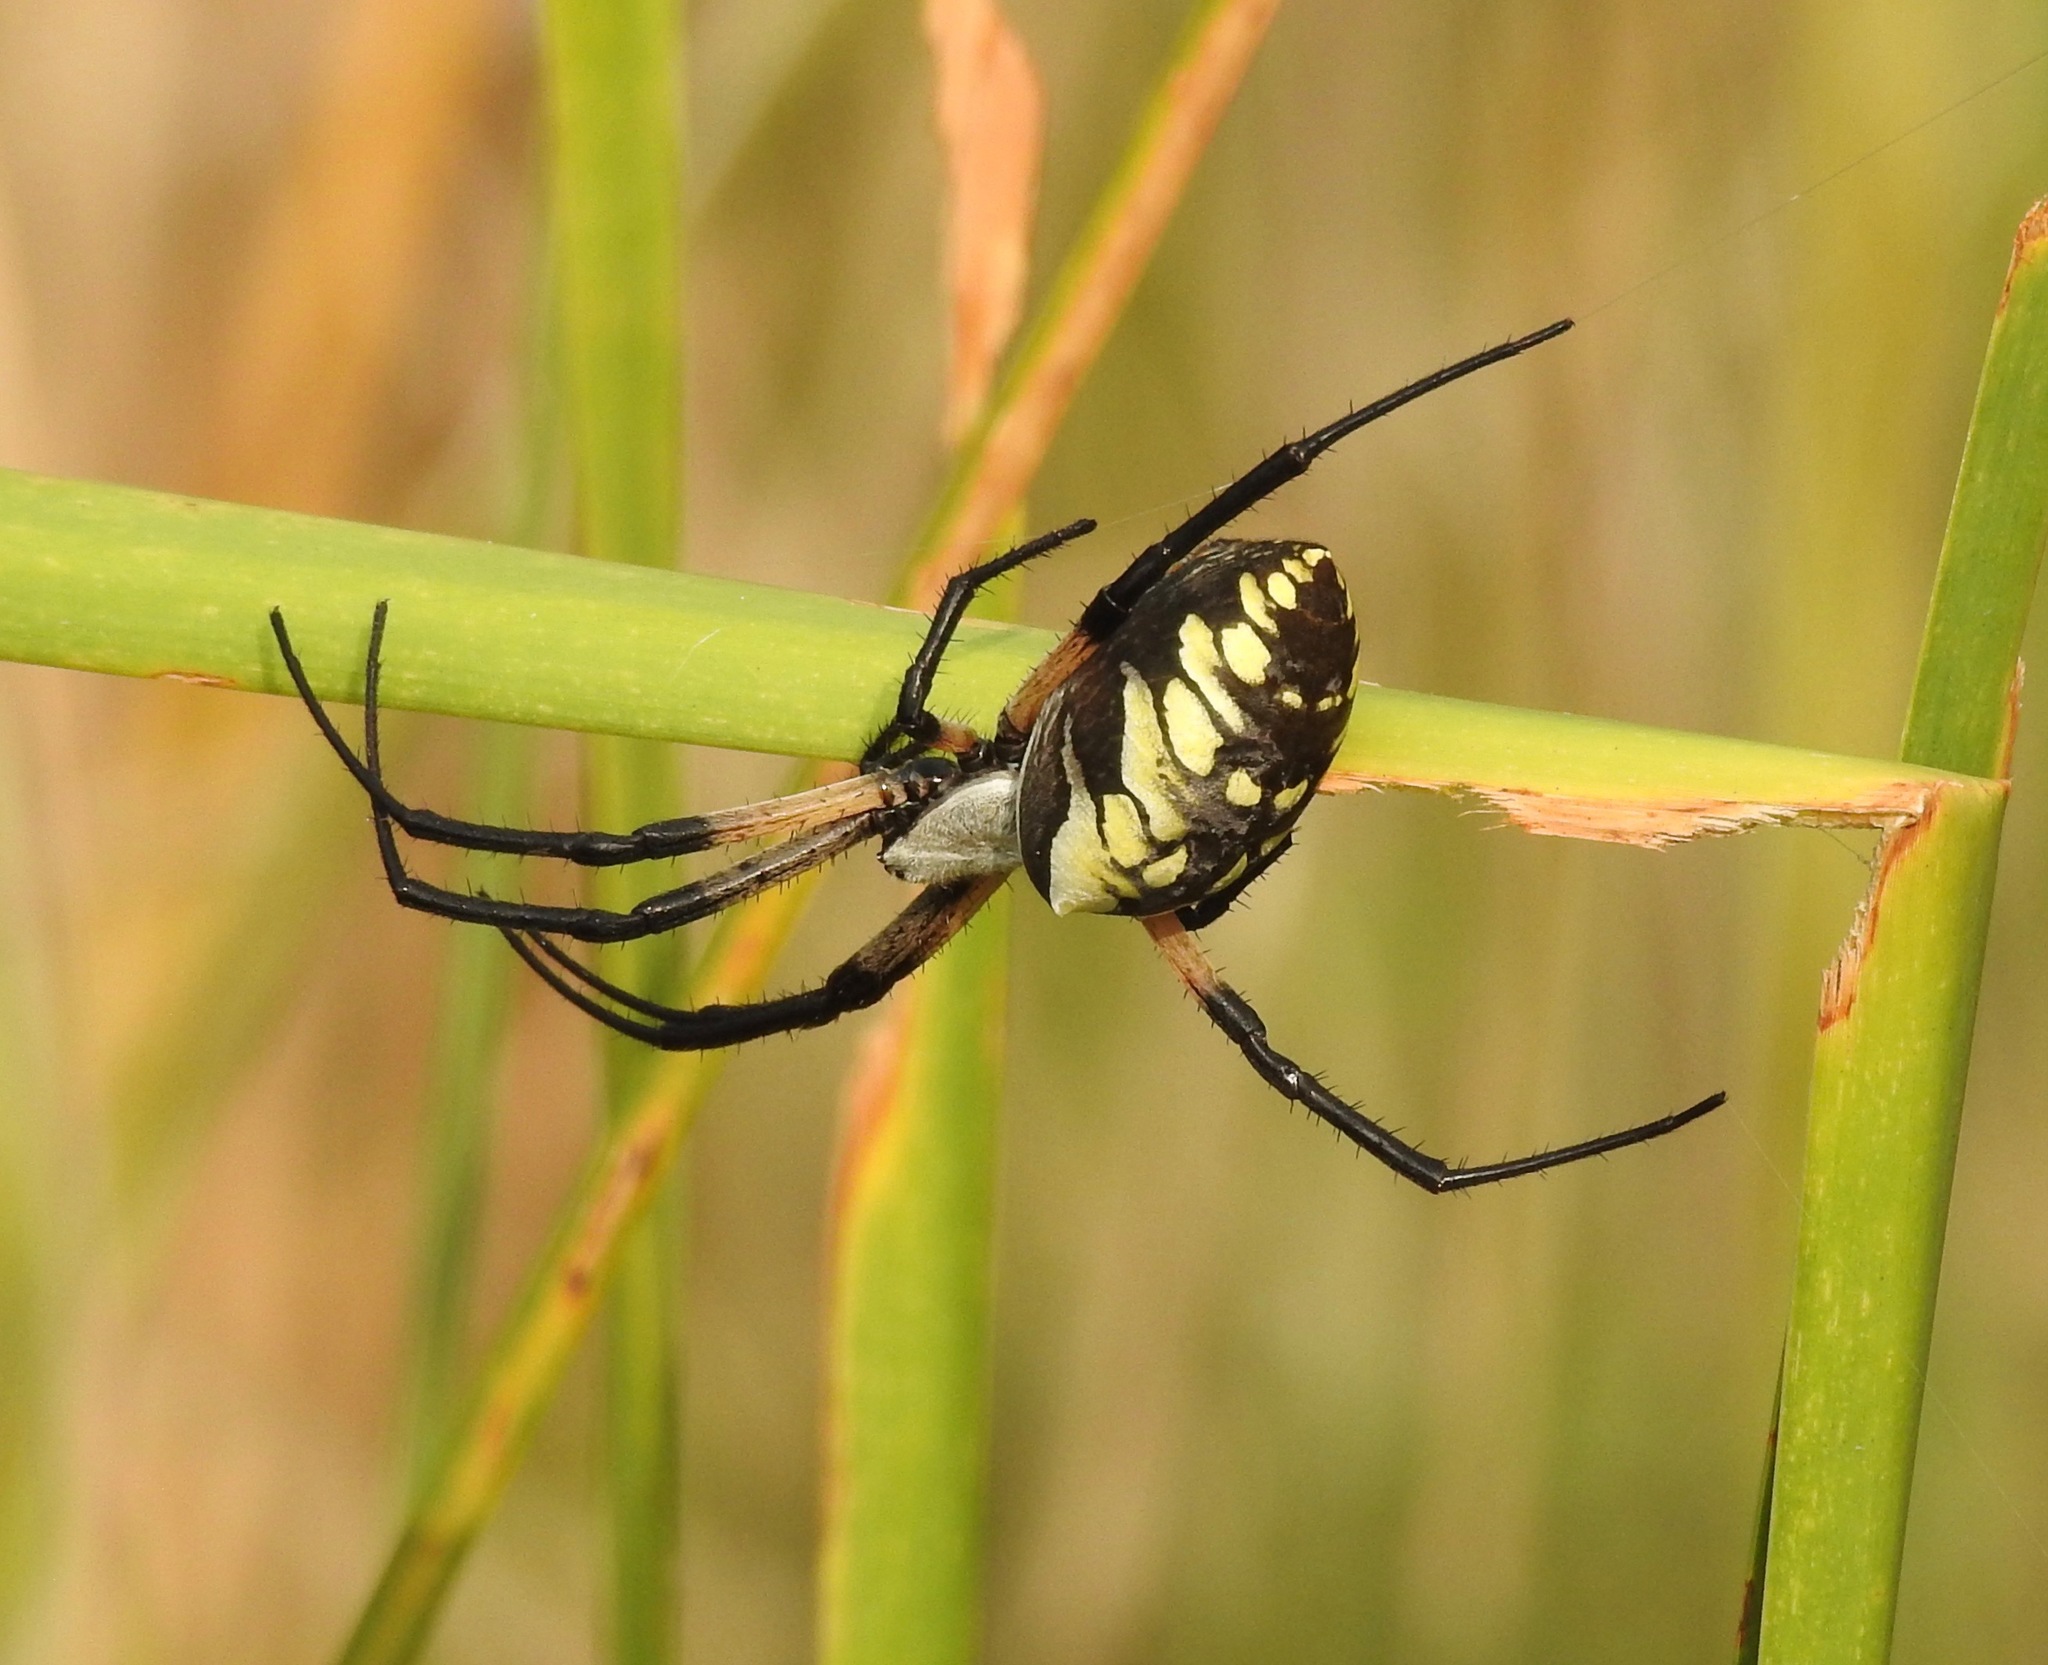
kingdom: Animalia
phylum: Arthropoda
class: Arachnida
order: Araneae
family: Araneidae
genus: Argiope
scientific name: Argiope aurantia
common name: Orb weavers
